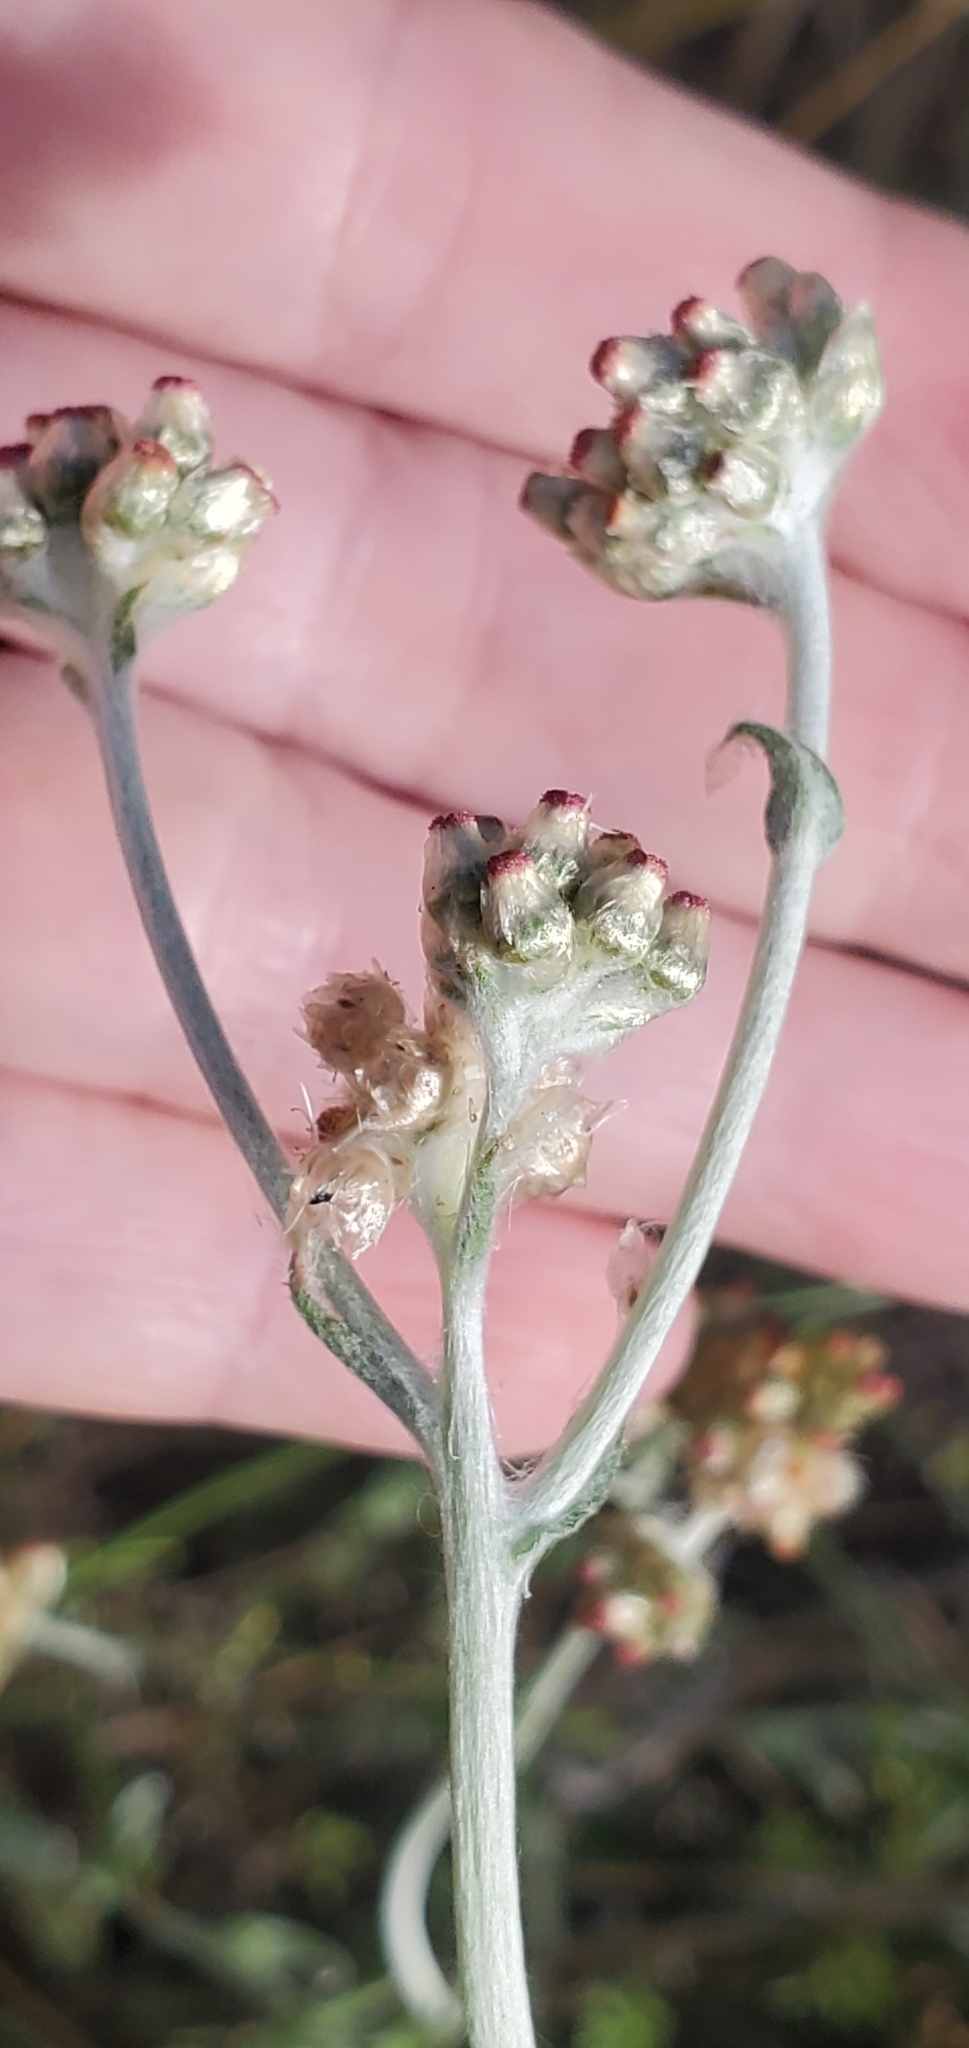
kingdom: Plantae
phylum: Tracheophyta
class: Magnoliopsida
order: Asterales
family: Asteraceae
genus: Helichrysum
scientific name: Helichrysum luteoalbum
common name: Daisy
